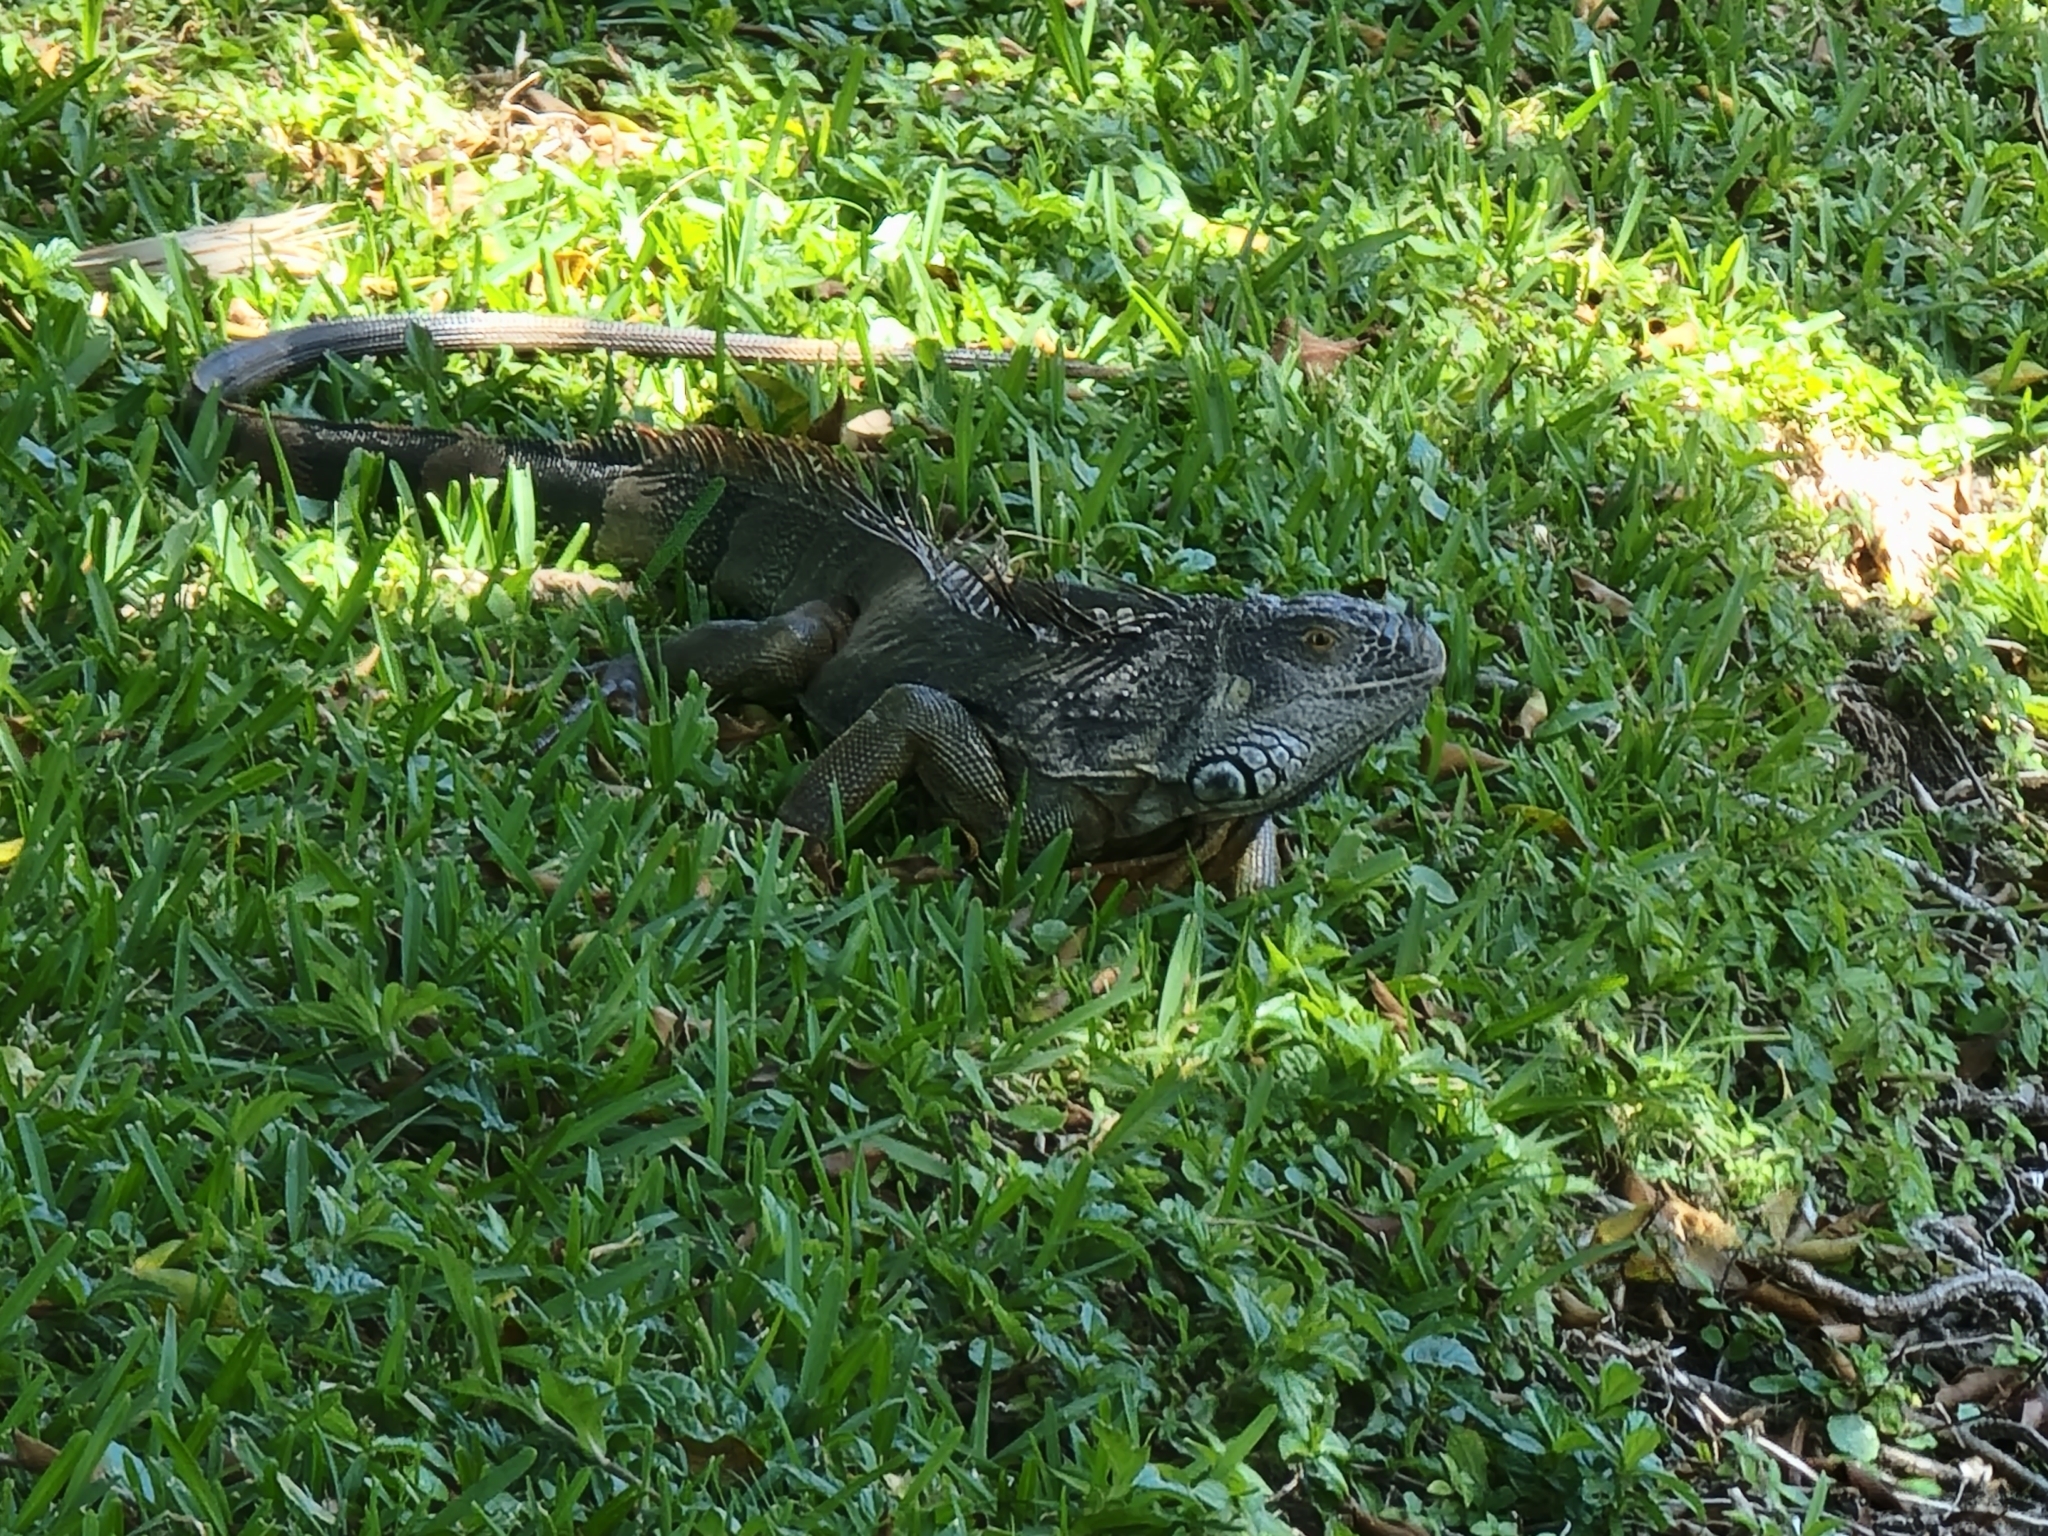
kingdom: Animalia
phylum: Chordata
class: Squamata
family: Iguanidae
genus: Iguana
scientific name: Iguana iguana
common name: Green iguana
